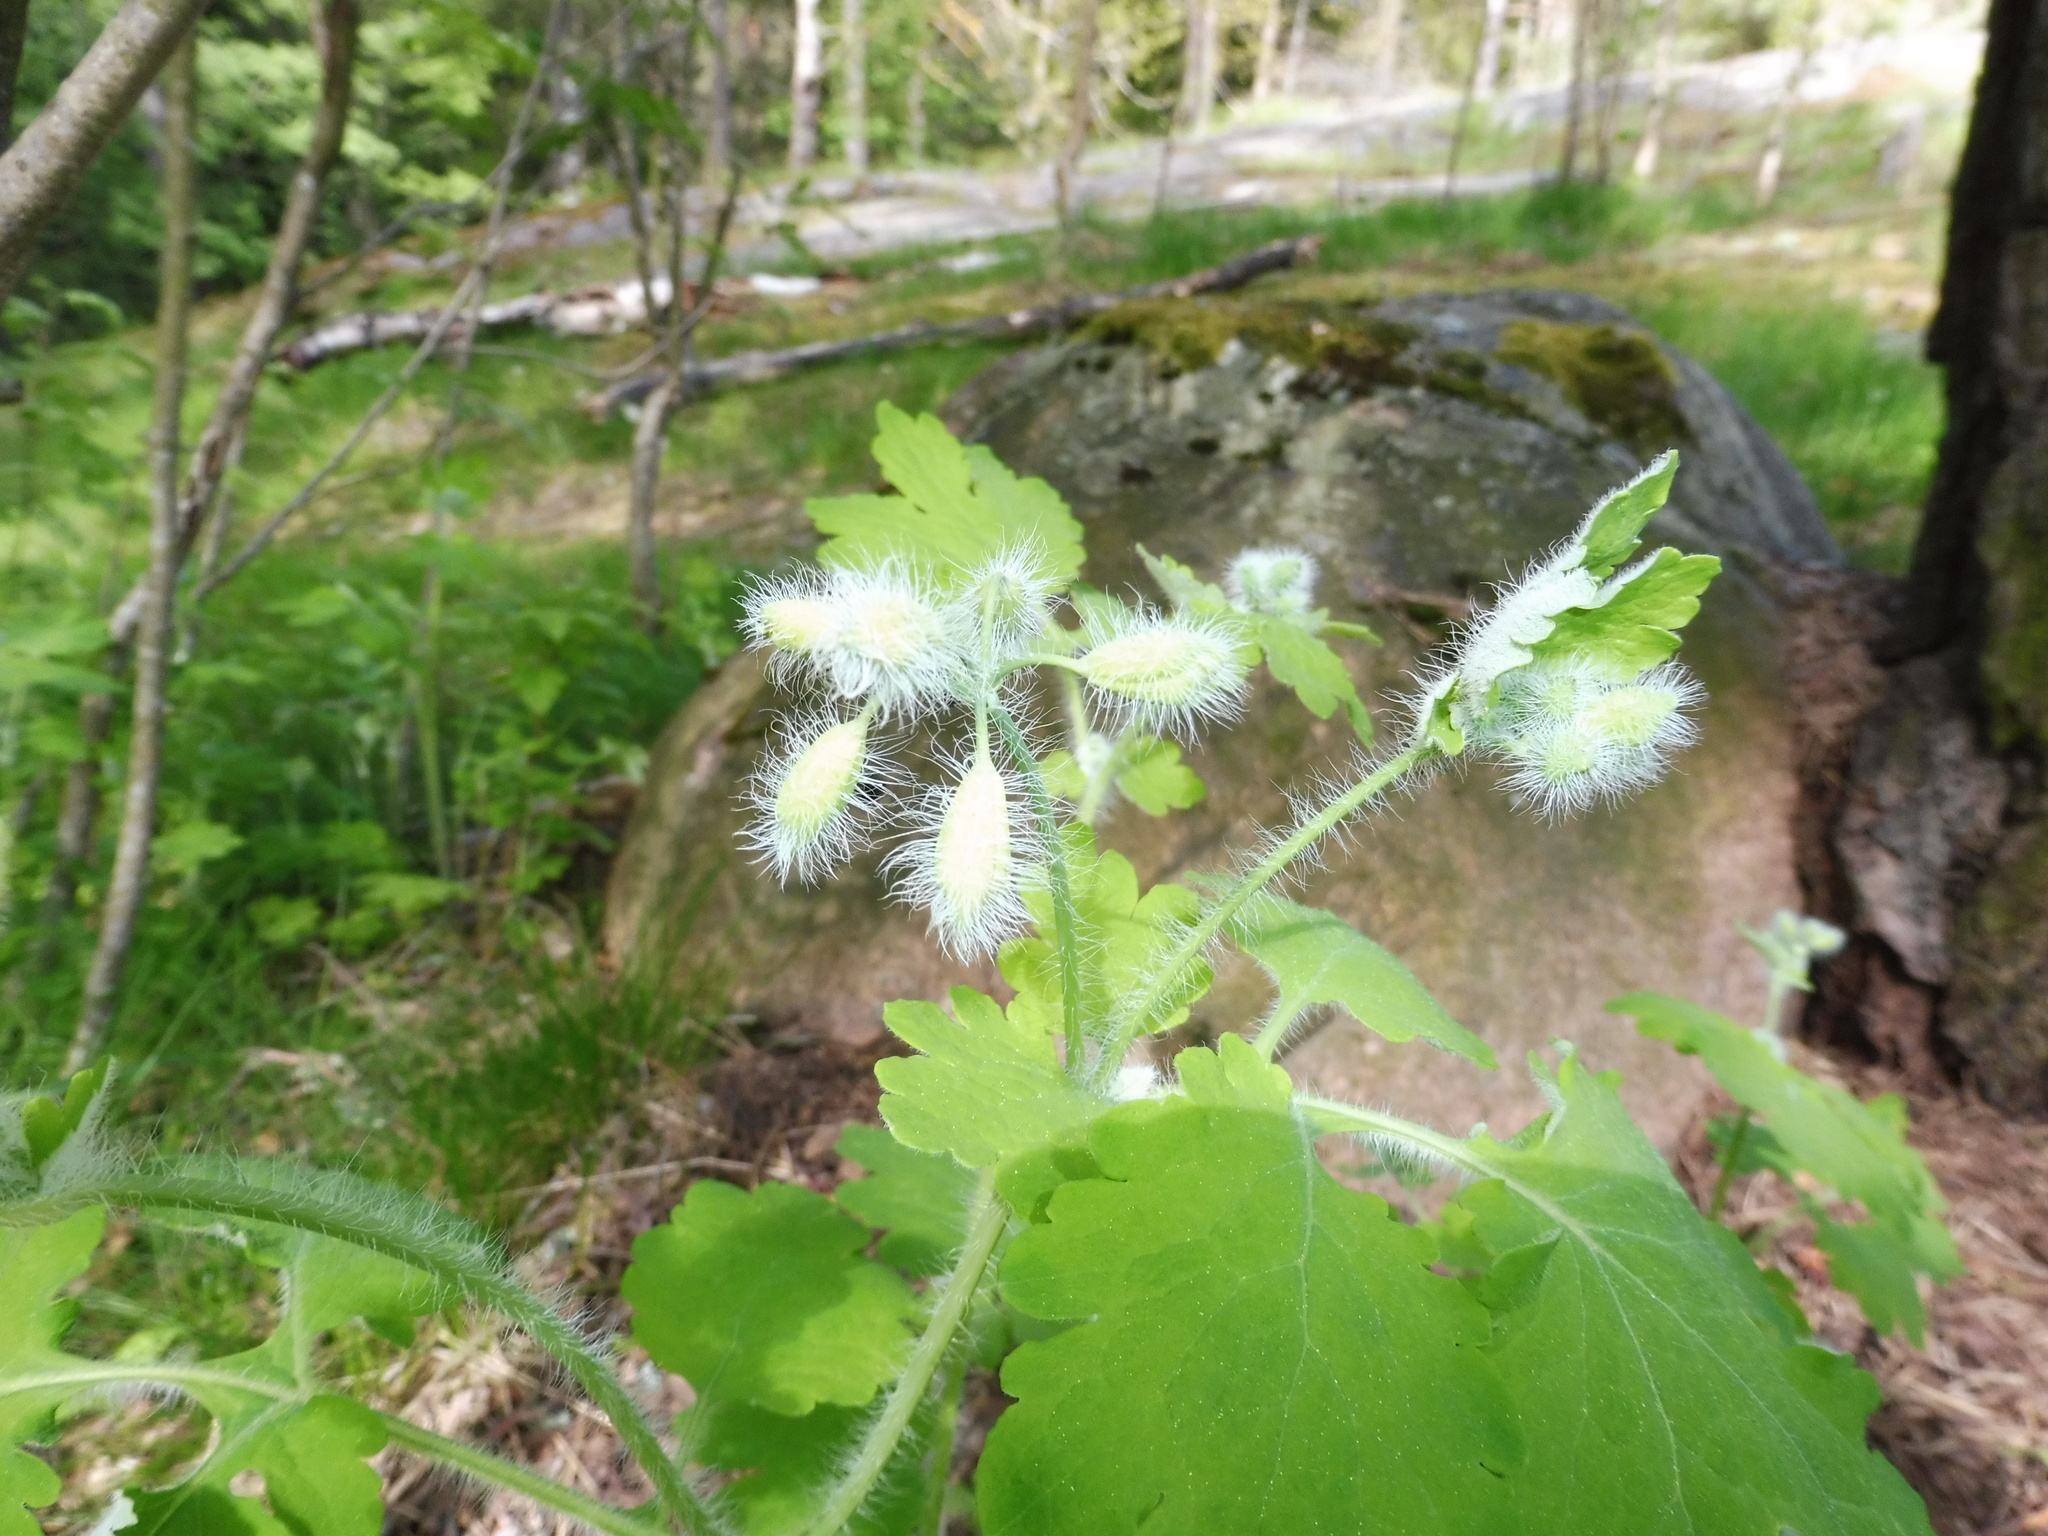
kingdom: Plantae
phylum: Tracheophyta
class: Magnoliopsida
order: Ranunculales
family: Papaveraceae
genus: Chelidonium
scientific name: Chelidonium majus
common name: Greater celandine
